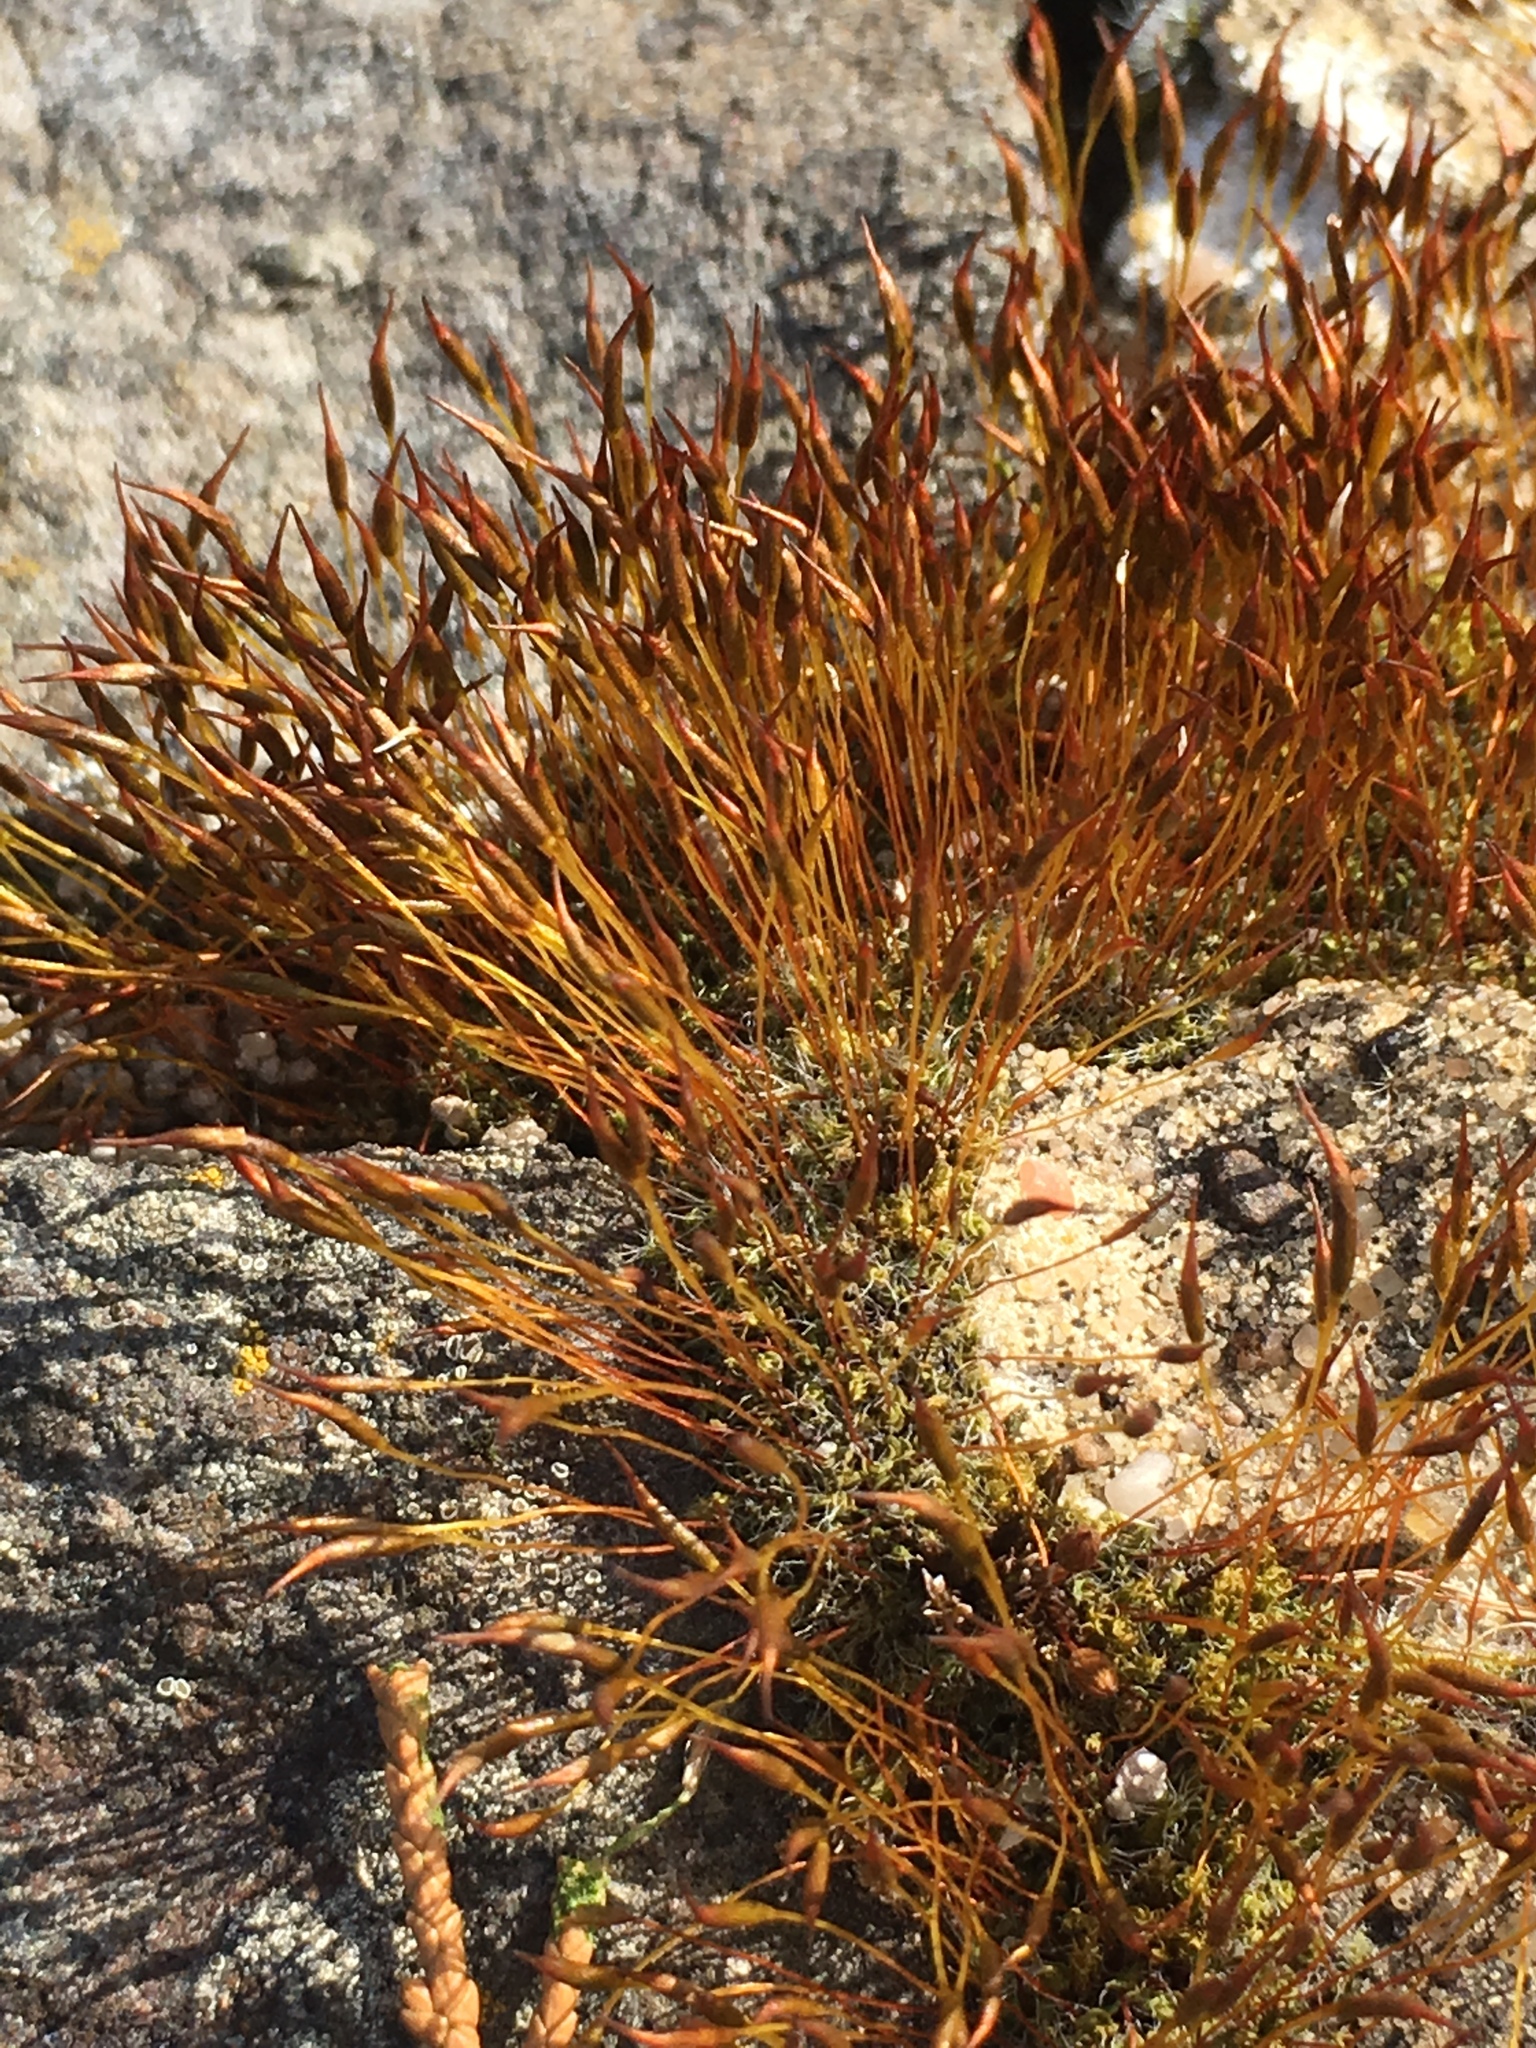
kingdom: Plantae
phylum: Bryophyta
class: Bryopsida
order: Pottiales
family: Pottiaceae
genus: Tortula
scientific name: Tortula muralis
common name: Wall screw-moss
